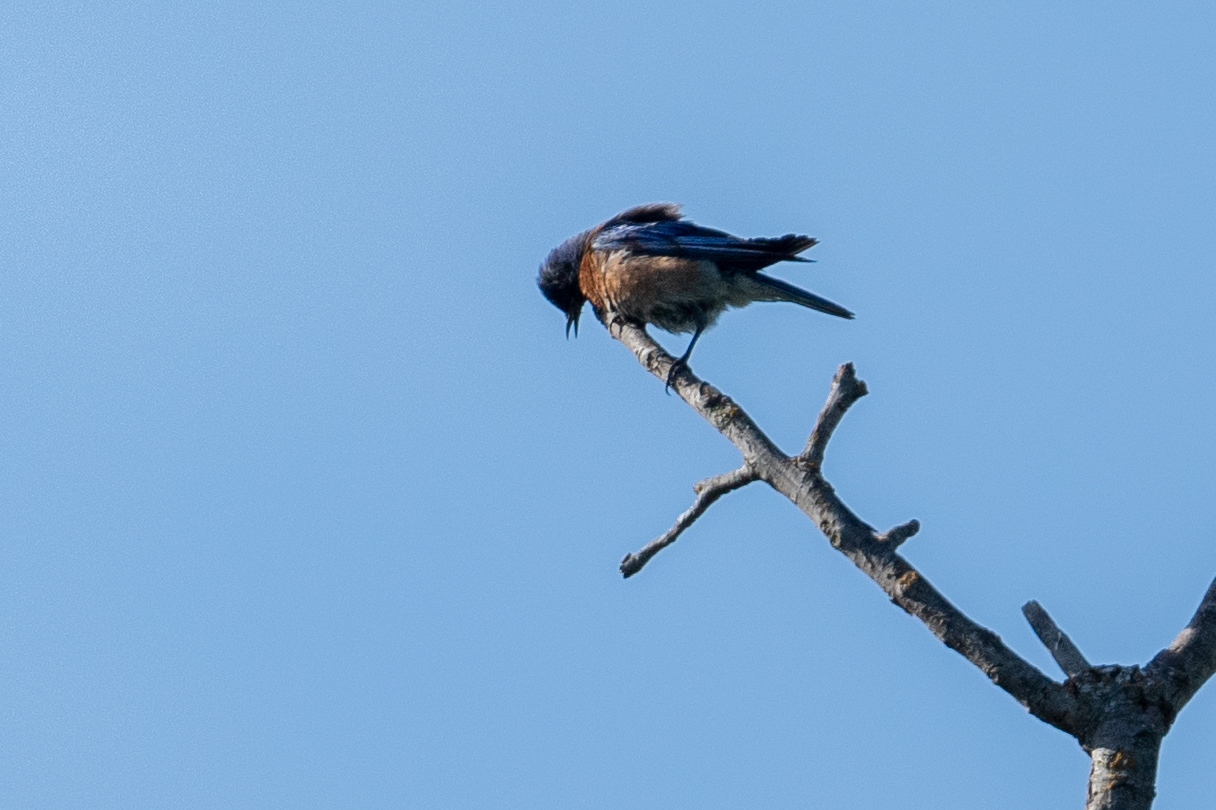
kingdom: Animalia
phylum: Chordata
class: Aves
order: Passeriformes
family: Turdidae
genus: Sialia
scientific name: Sialia mexicana
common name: Western bluebird
